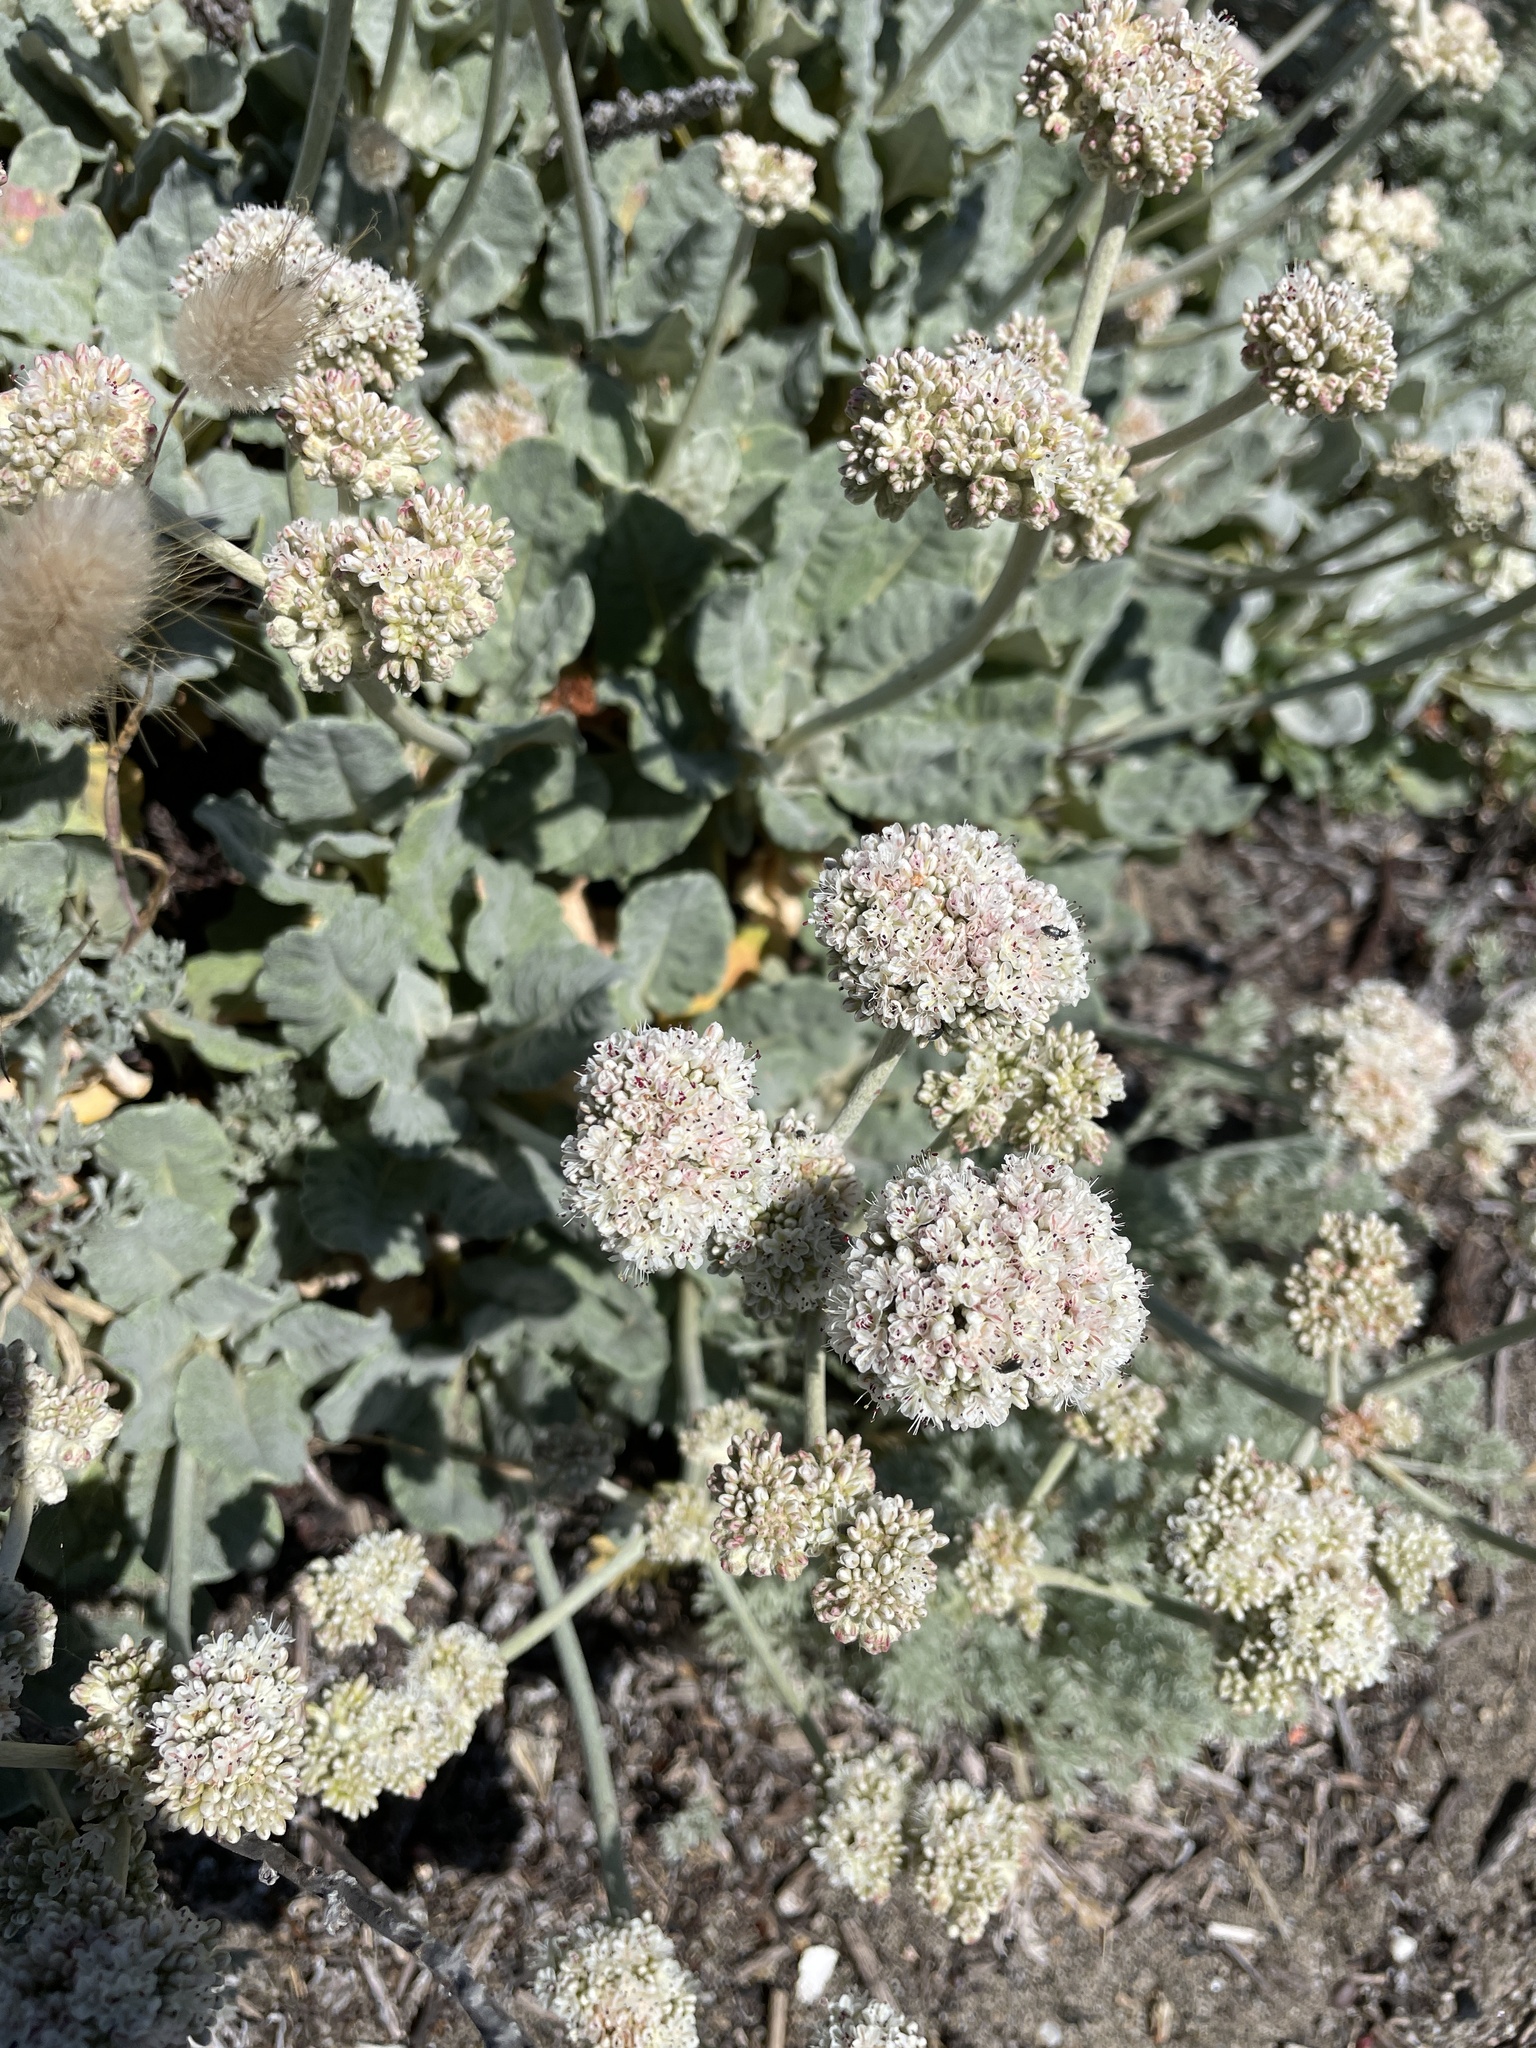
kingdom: Plantae
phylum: Tracheophyta
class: Magnoliopsida
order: Caryophyllales
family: Polygonaceae
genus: Eriogonum
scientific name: Eriogonum latifolium
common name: Seaside wild buckwheat
